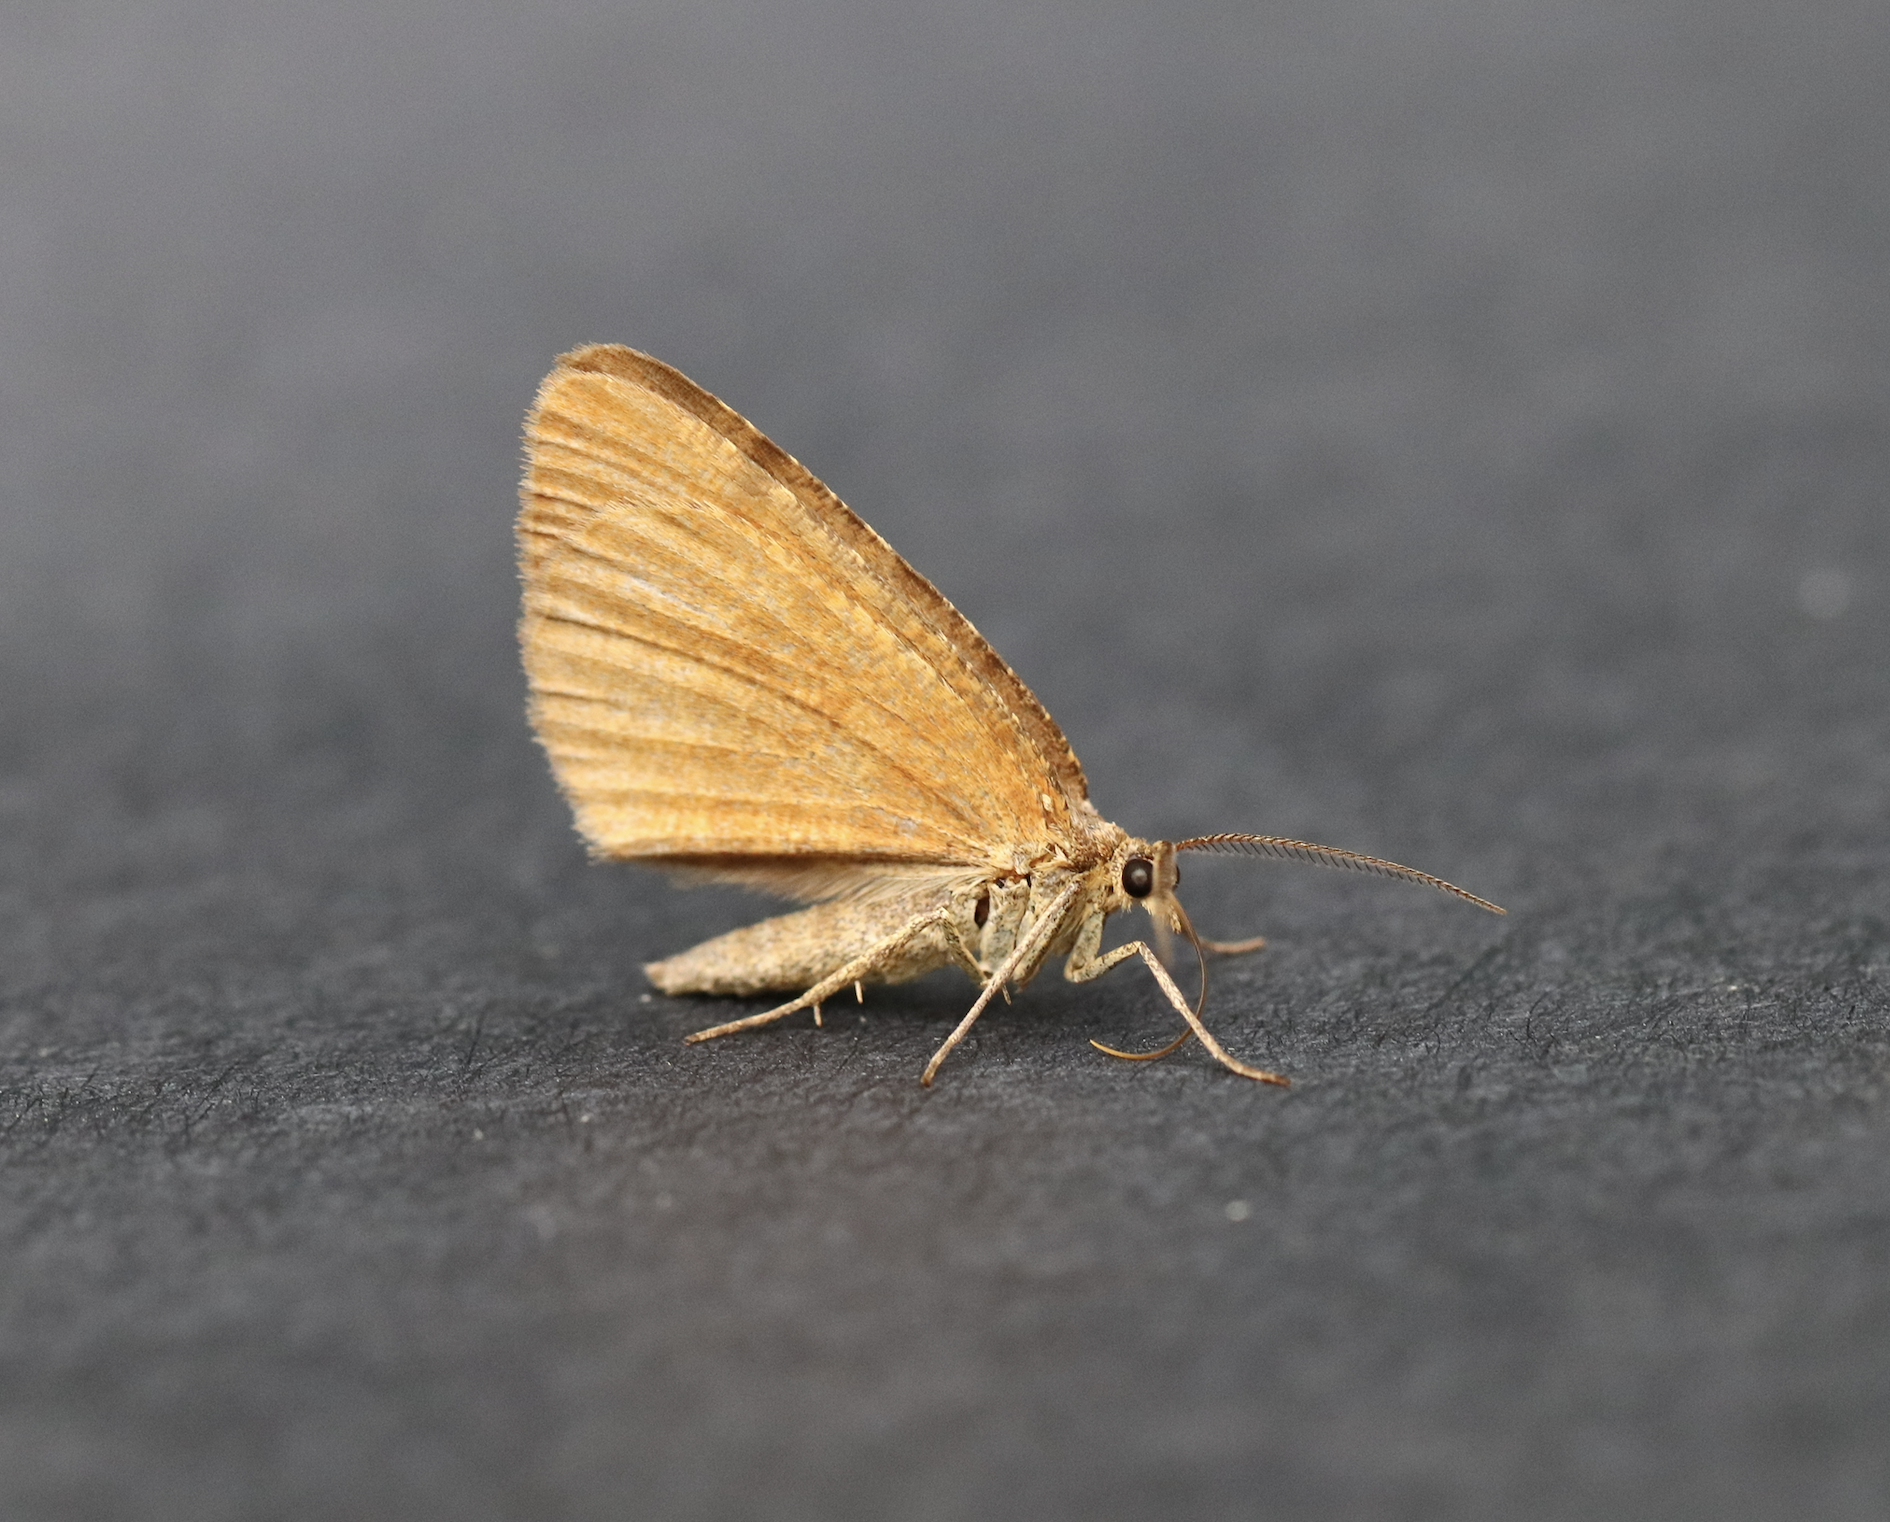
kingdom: Animalia
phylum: Arthropoda
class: Insecta
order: Lepidoptera
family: Geometridae
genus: Macaria
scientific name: Macaria brunneata
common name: Rannoch looper
